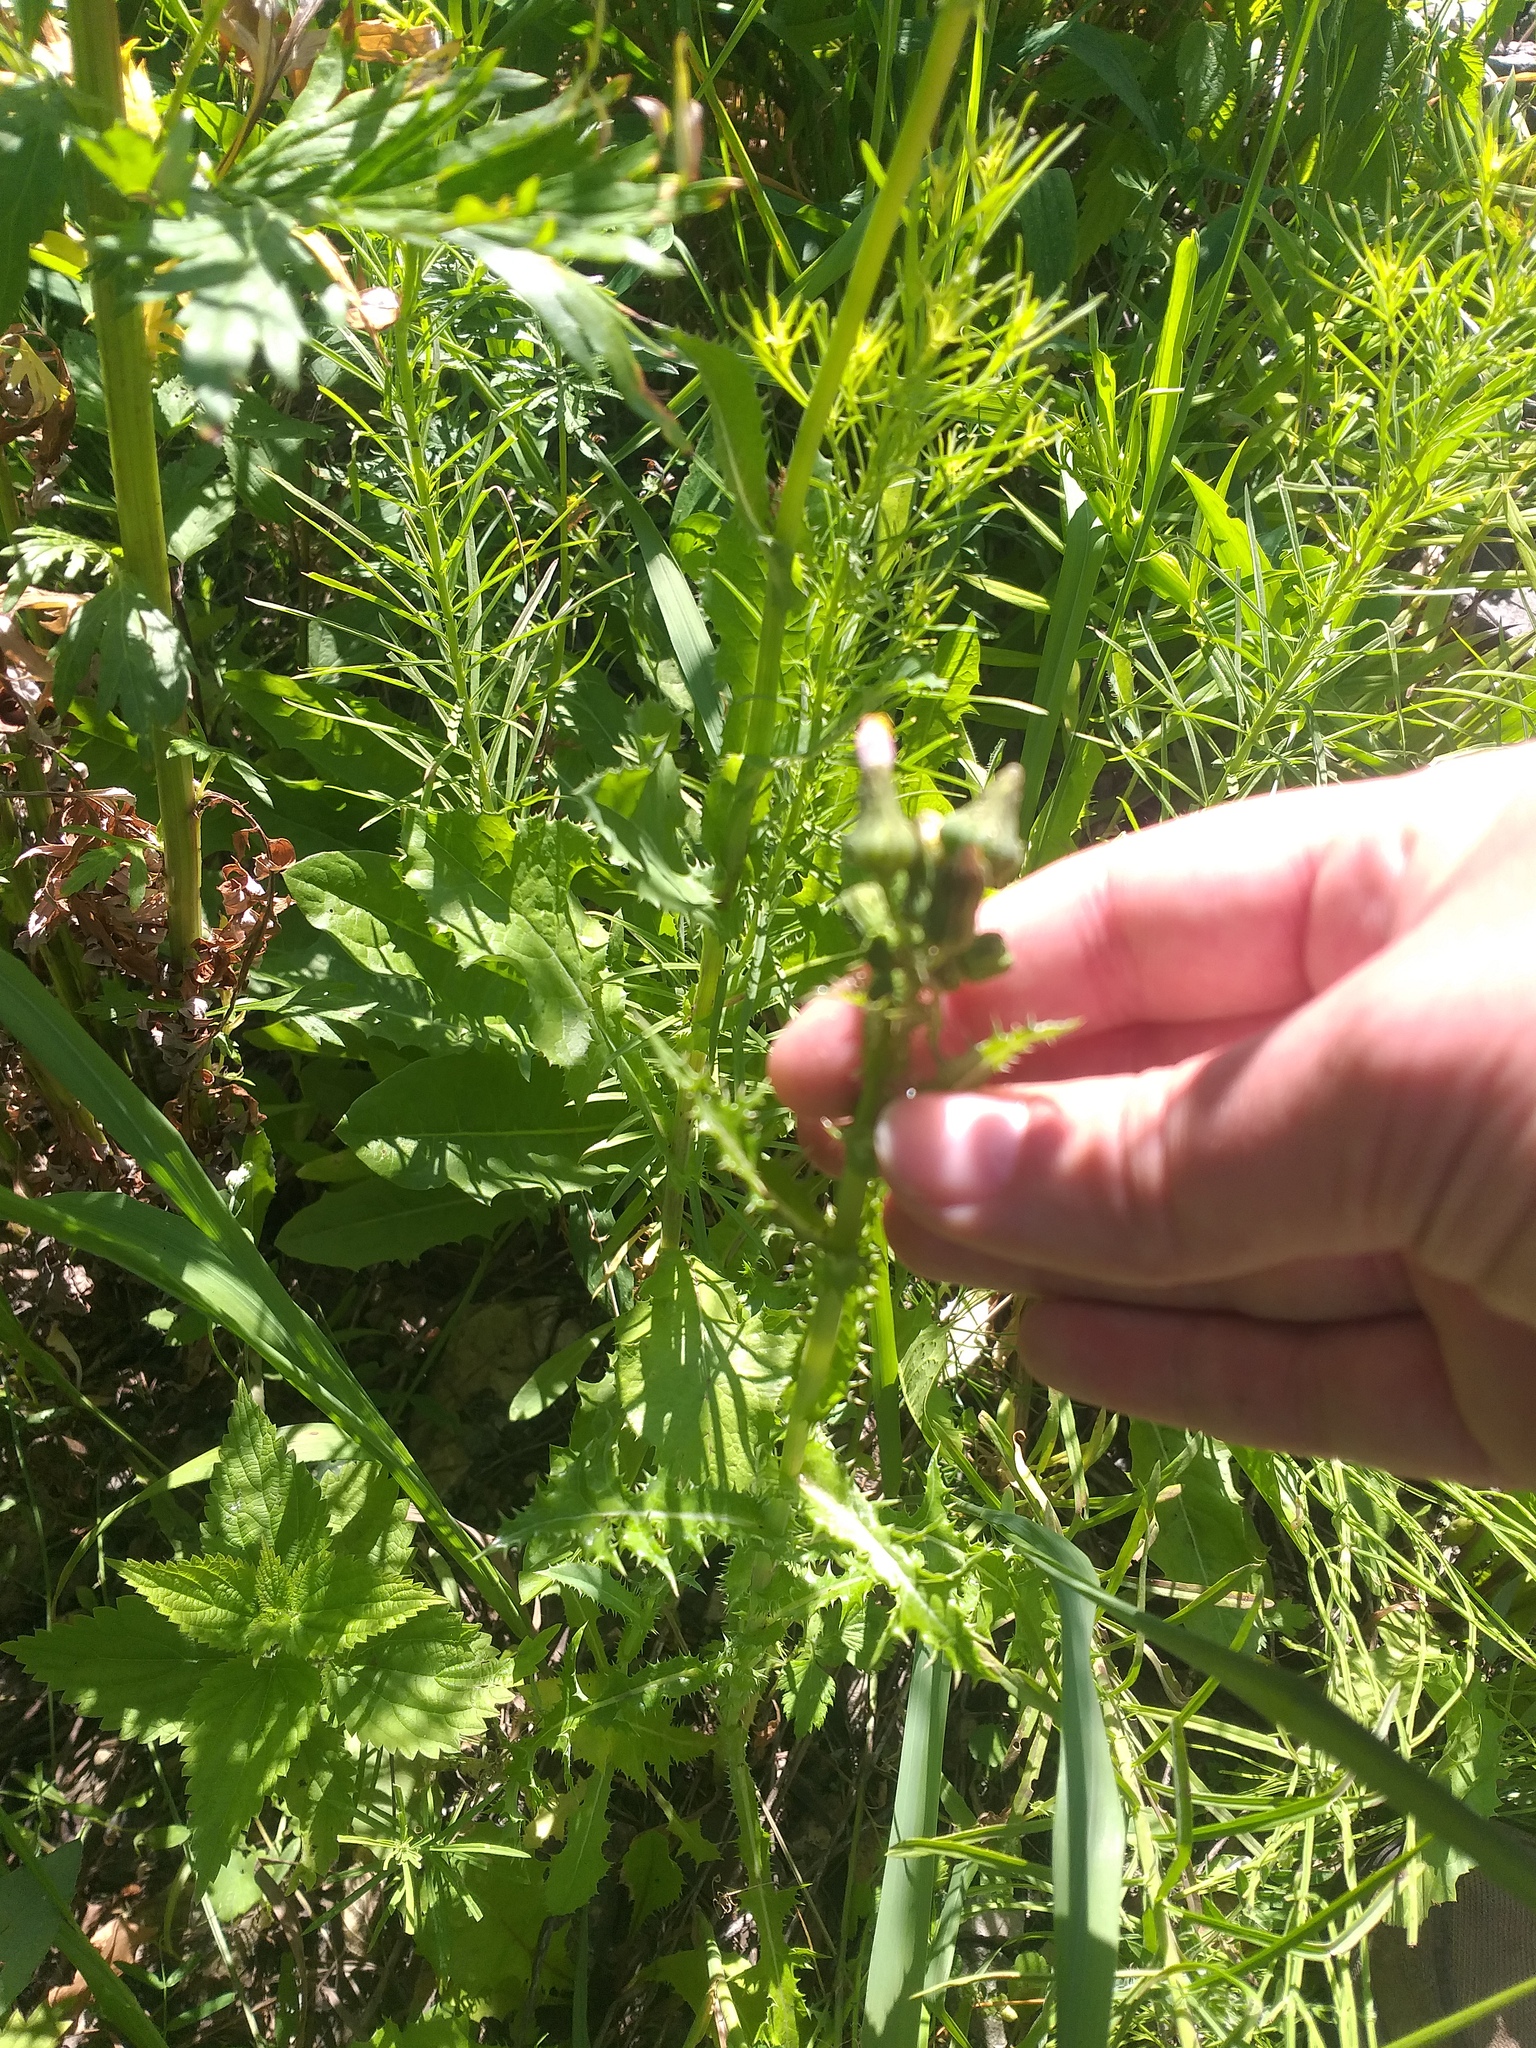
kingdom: Plantae
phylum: Tracheophyta
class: Magnoliopsida
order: Asterales
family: Asteraceae
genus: Sonchus
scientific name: Sonchus asper
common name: Prickly sow-thistle
